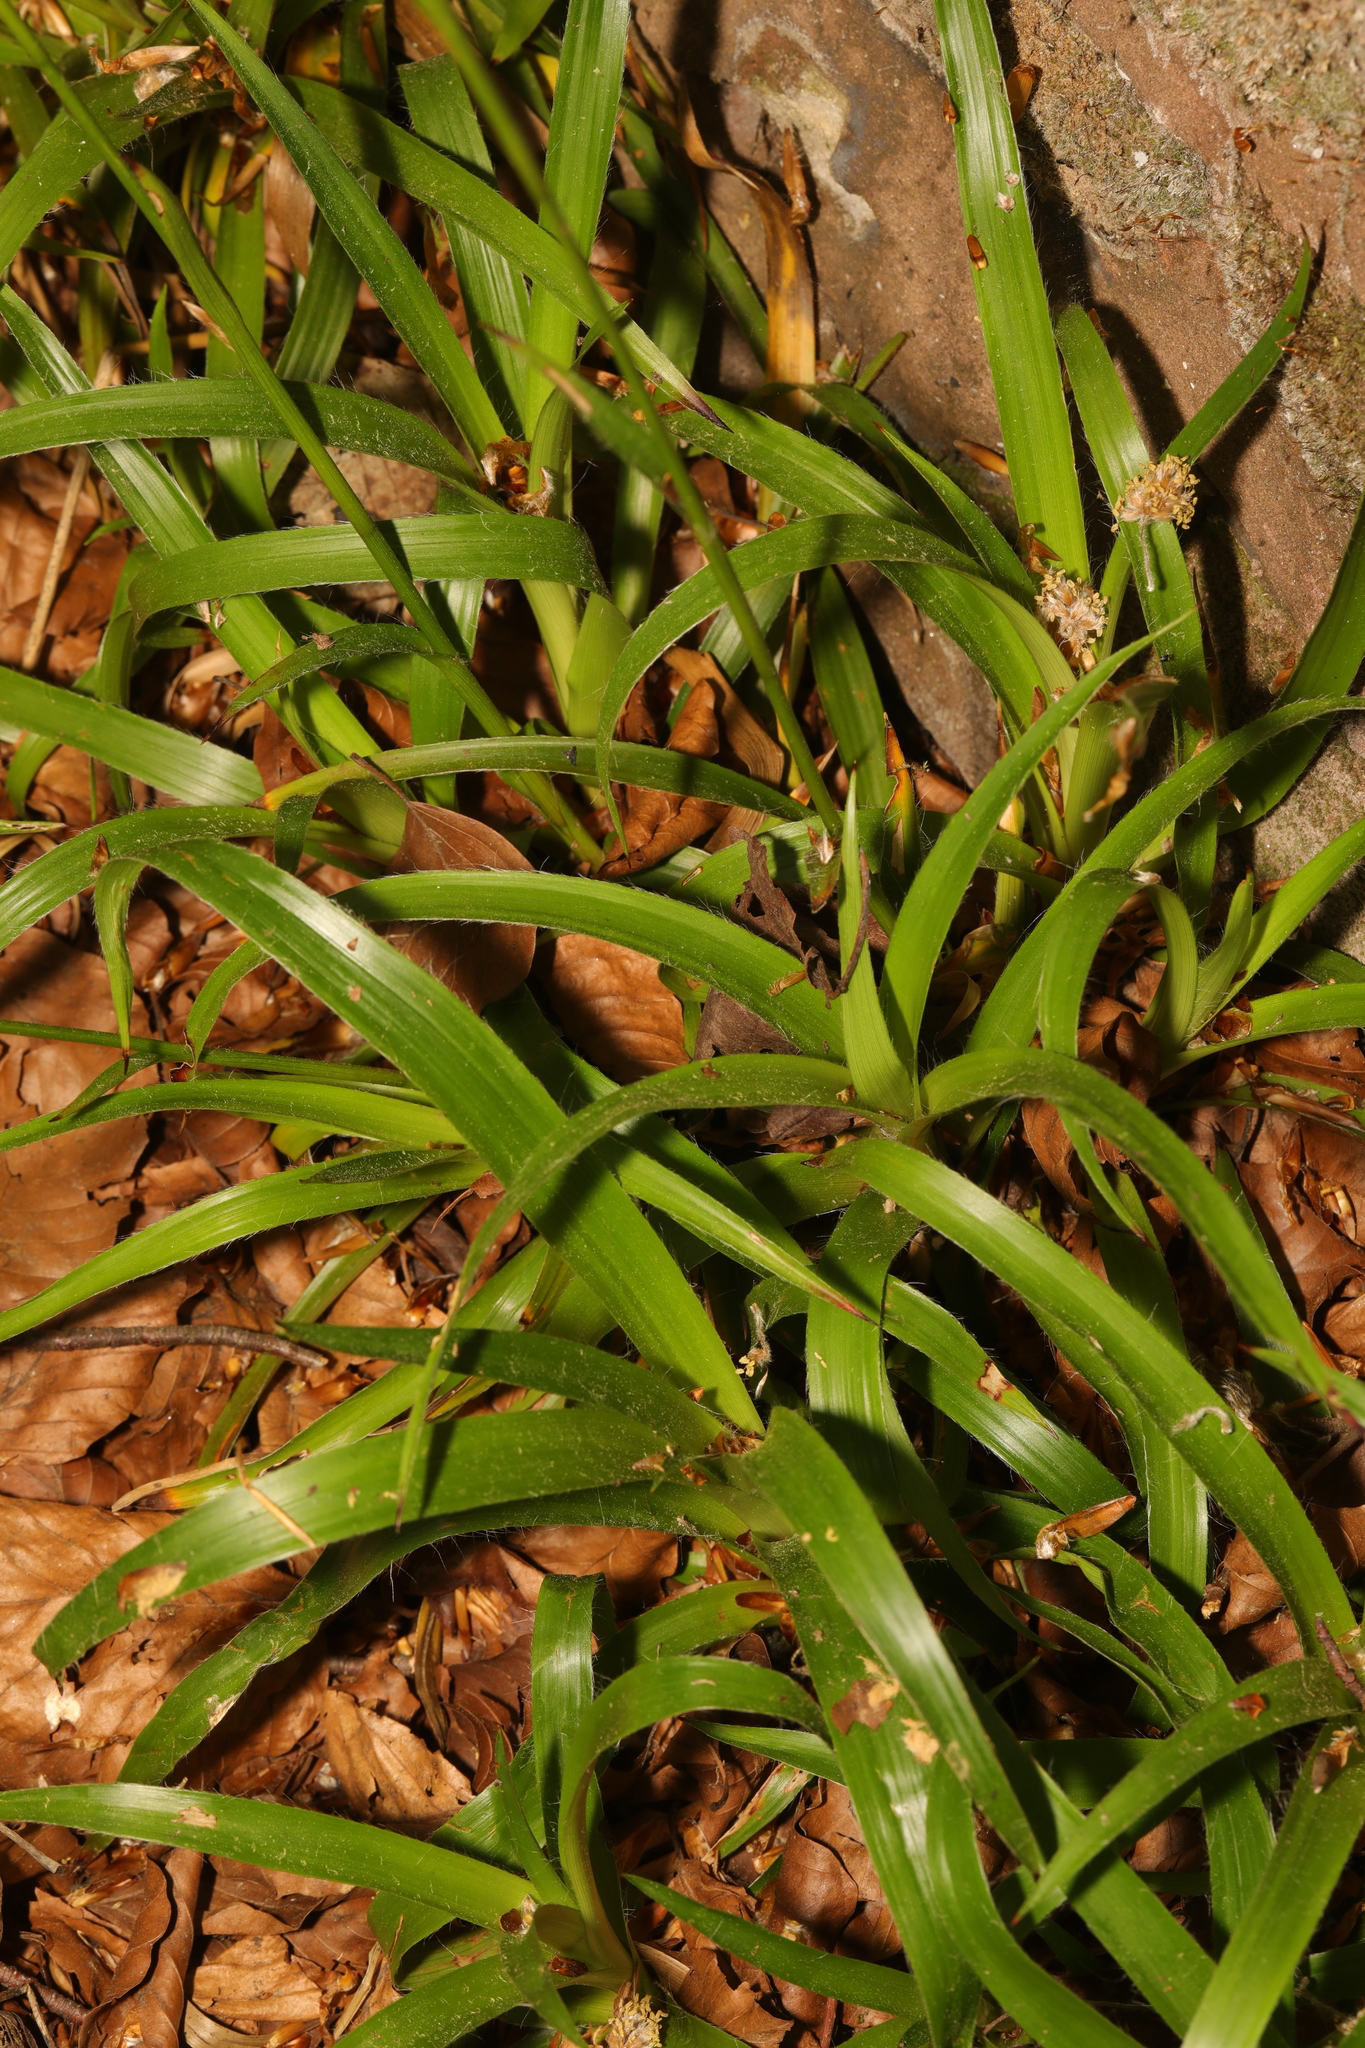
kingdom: Plantae
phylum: Tracheophyta
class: Liliopsida
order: Poales
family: Juncaceae
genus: Luzula
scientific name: Luzula sylvatica
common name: Great wood-rush
